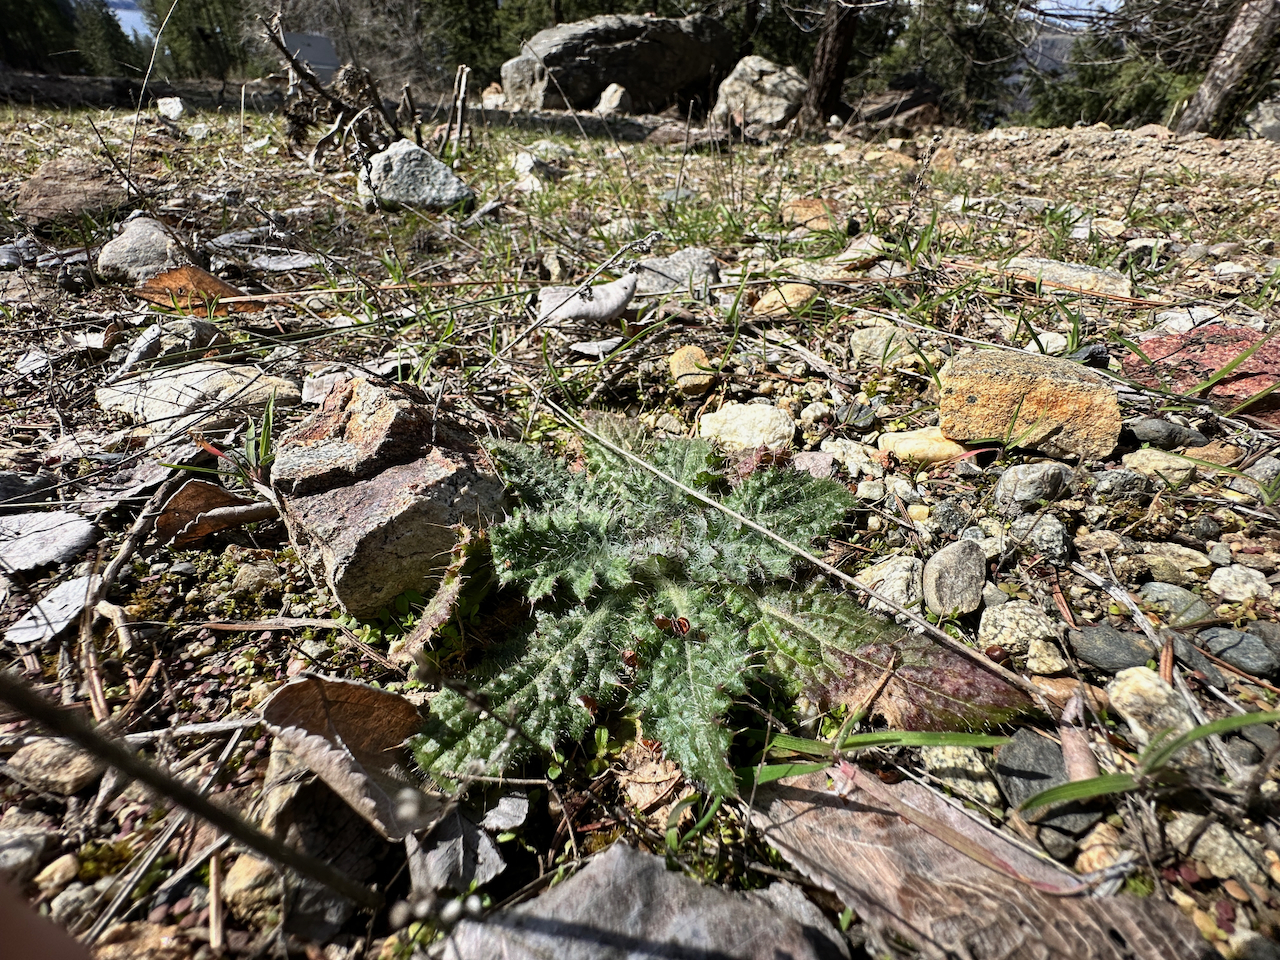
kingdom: Plantae
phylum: Tracheophyta
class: Magnoliopsida
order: Asterales
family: Asteraceae
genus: Cirsium
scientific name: Cirsium vulgare
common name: Bull thistle
